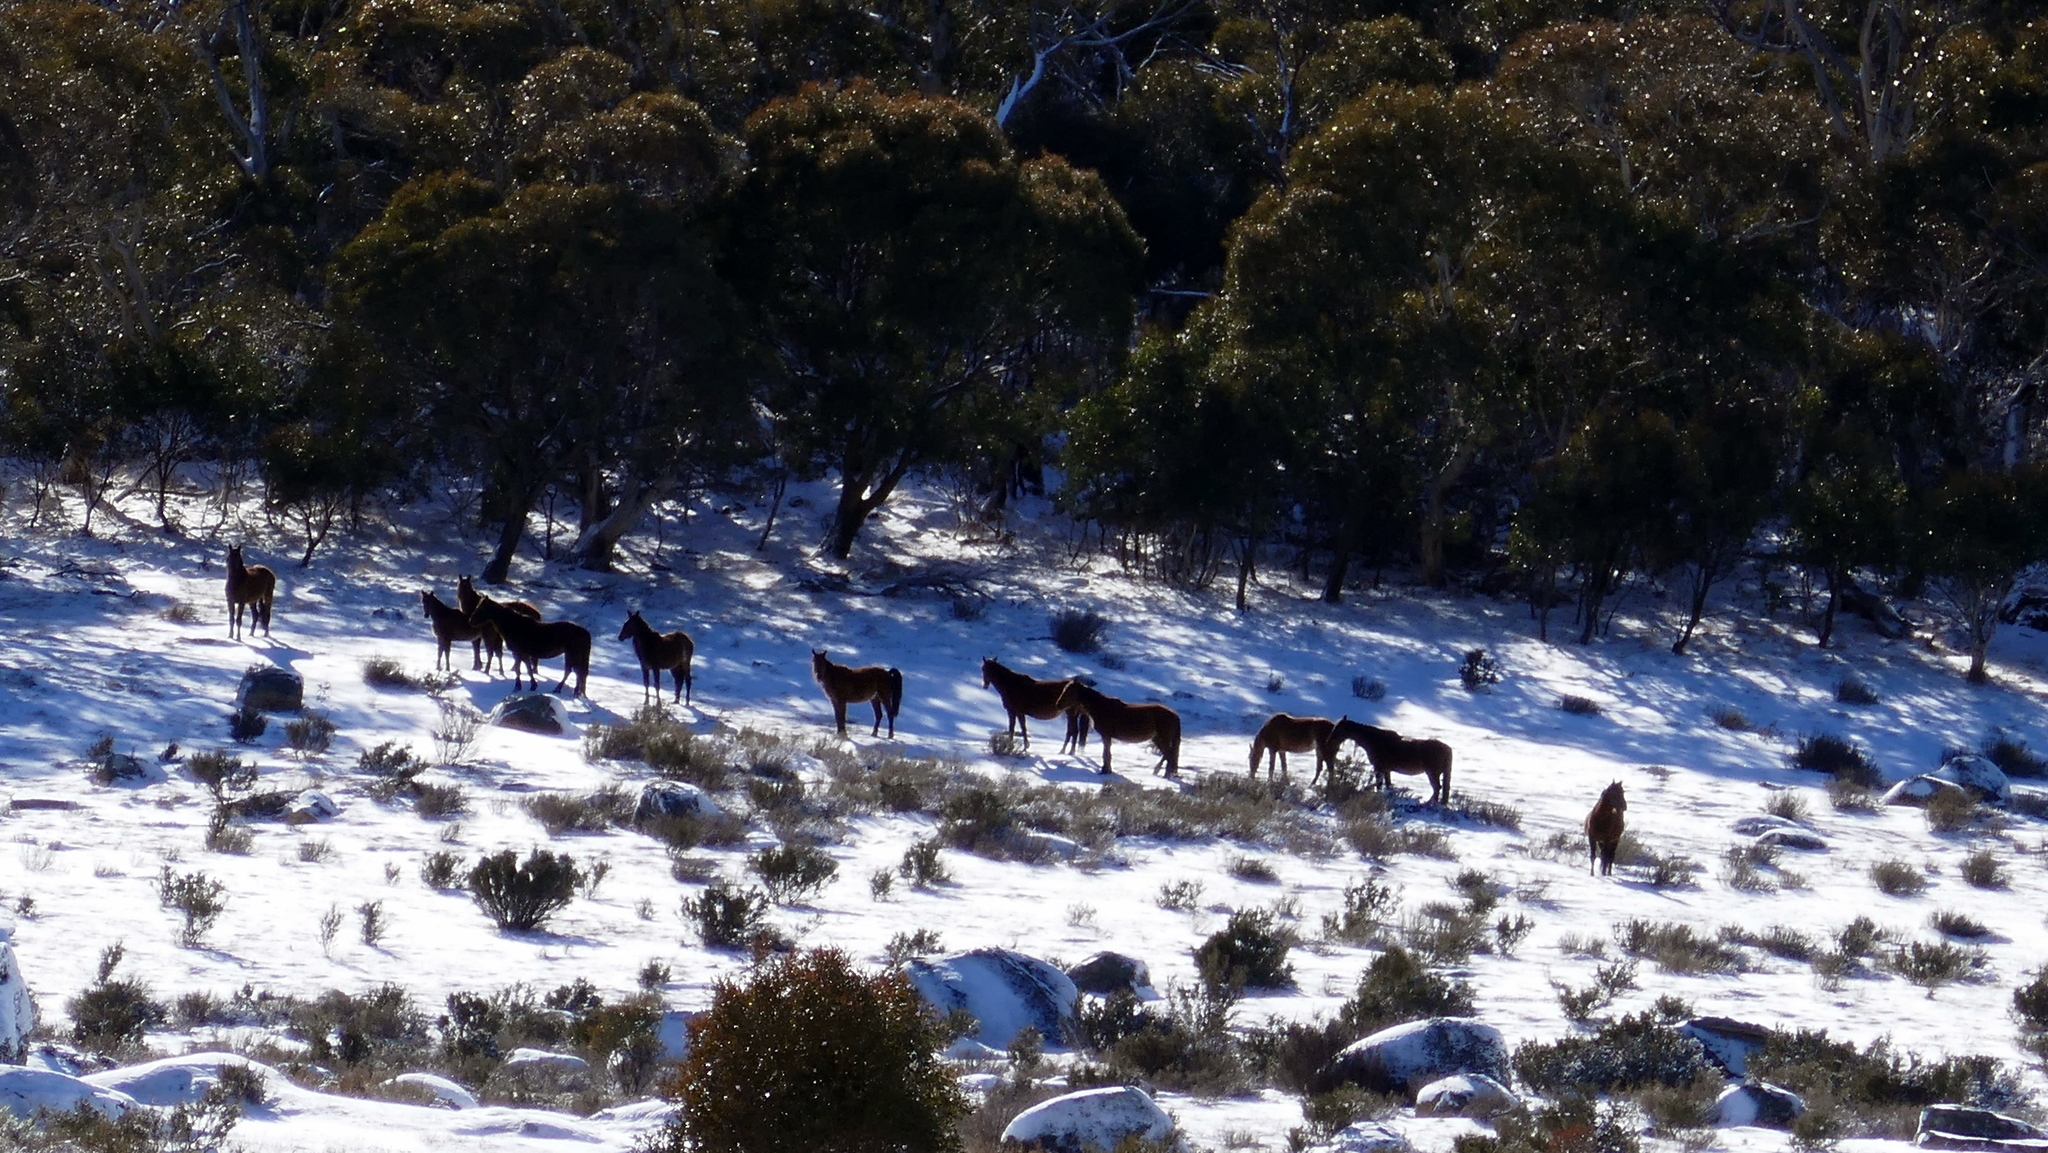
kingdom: Animalia
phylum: Chordata
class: Mammalia
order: Perissodactyla
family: Equidae
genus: Equus
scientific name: Equus caballus
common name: Horse
